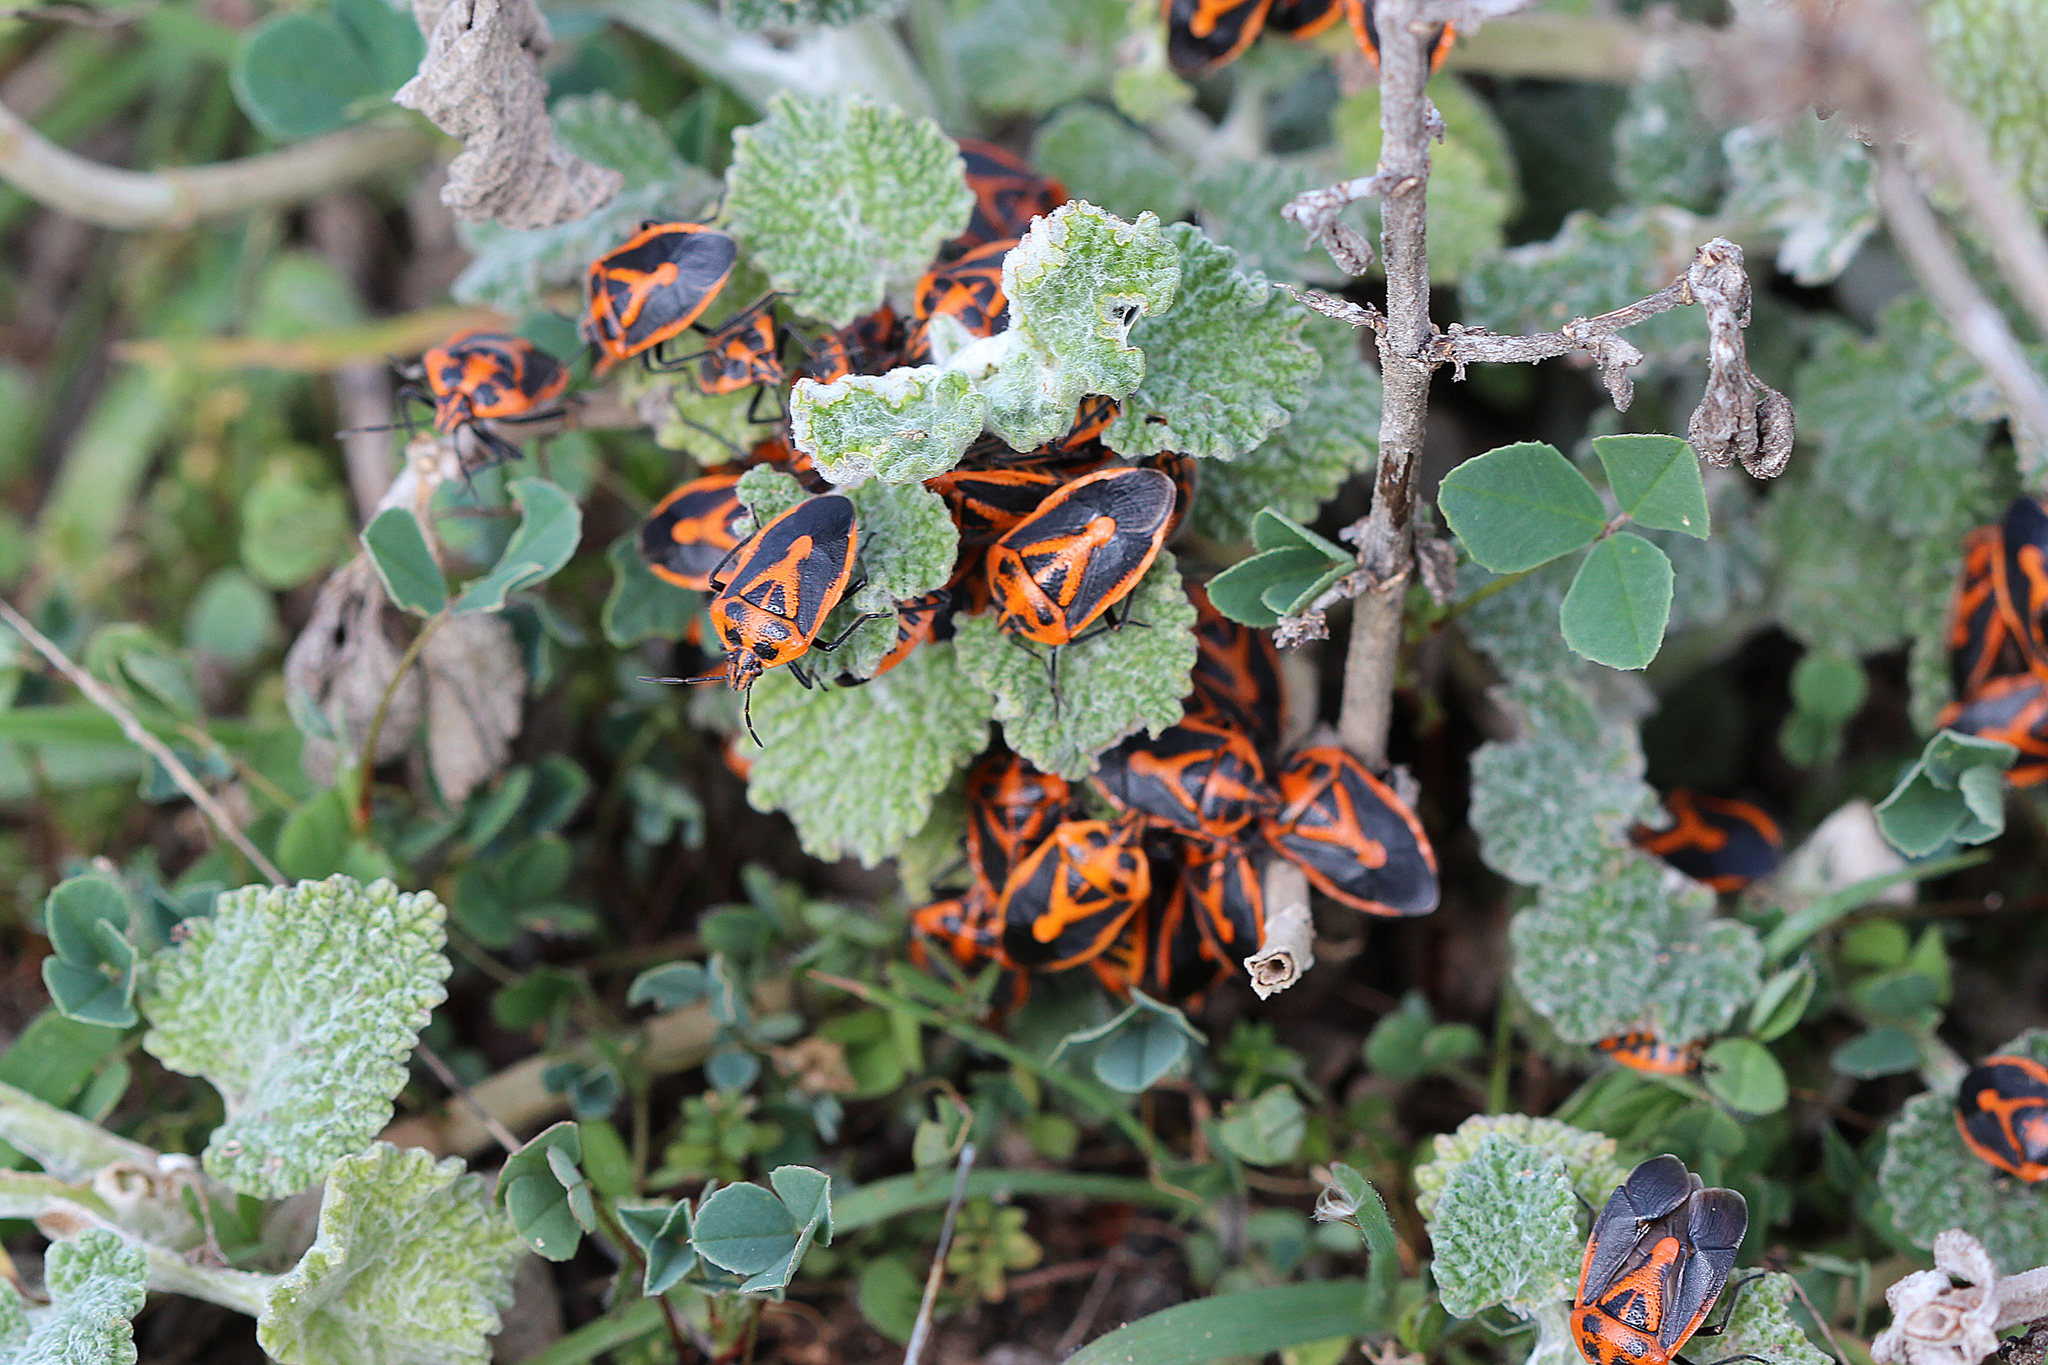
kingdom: Animalia
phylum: Arthropoda
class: Insecta
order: Hemiptera
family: Pentatomidae
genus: Agonoscelis
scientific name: Agonoscelis rutila
